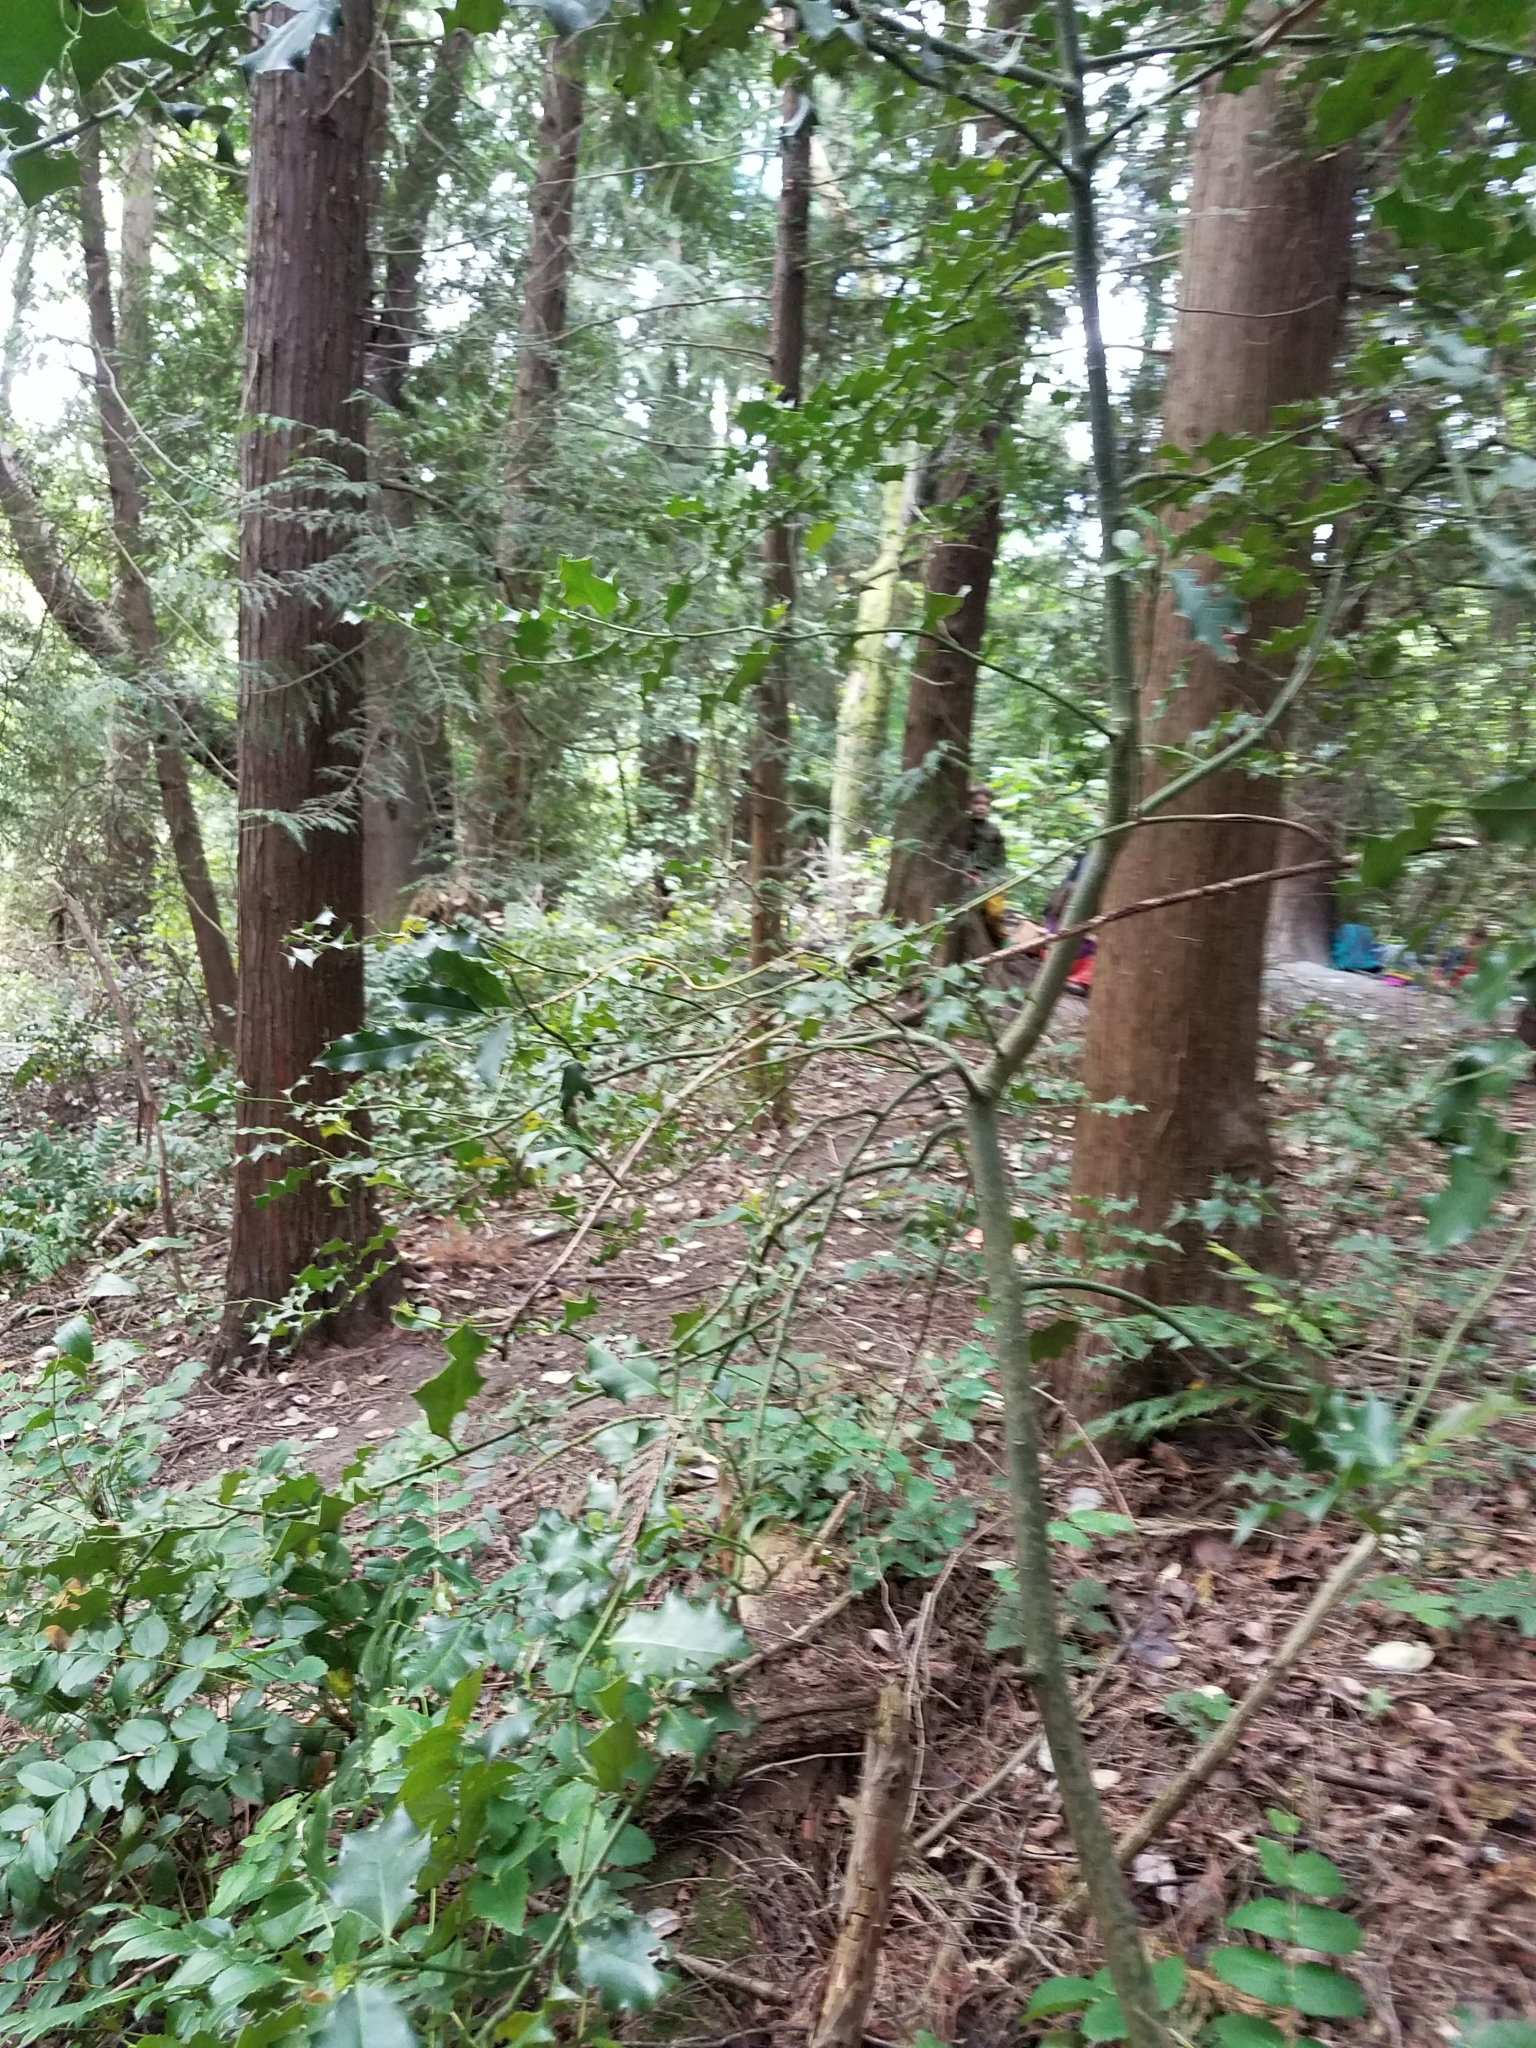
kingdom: Plantae
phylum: Tracheophyta
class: Magnoliopsida
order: Aquifoliales
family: Aquifoliaceae
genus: Ilex
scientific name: Ilex aquifolium
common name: English holly
